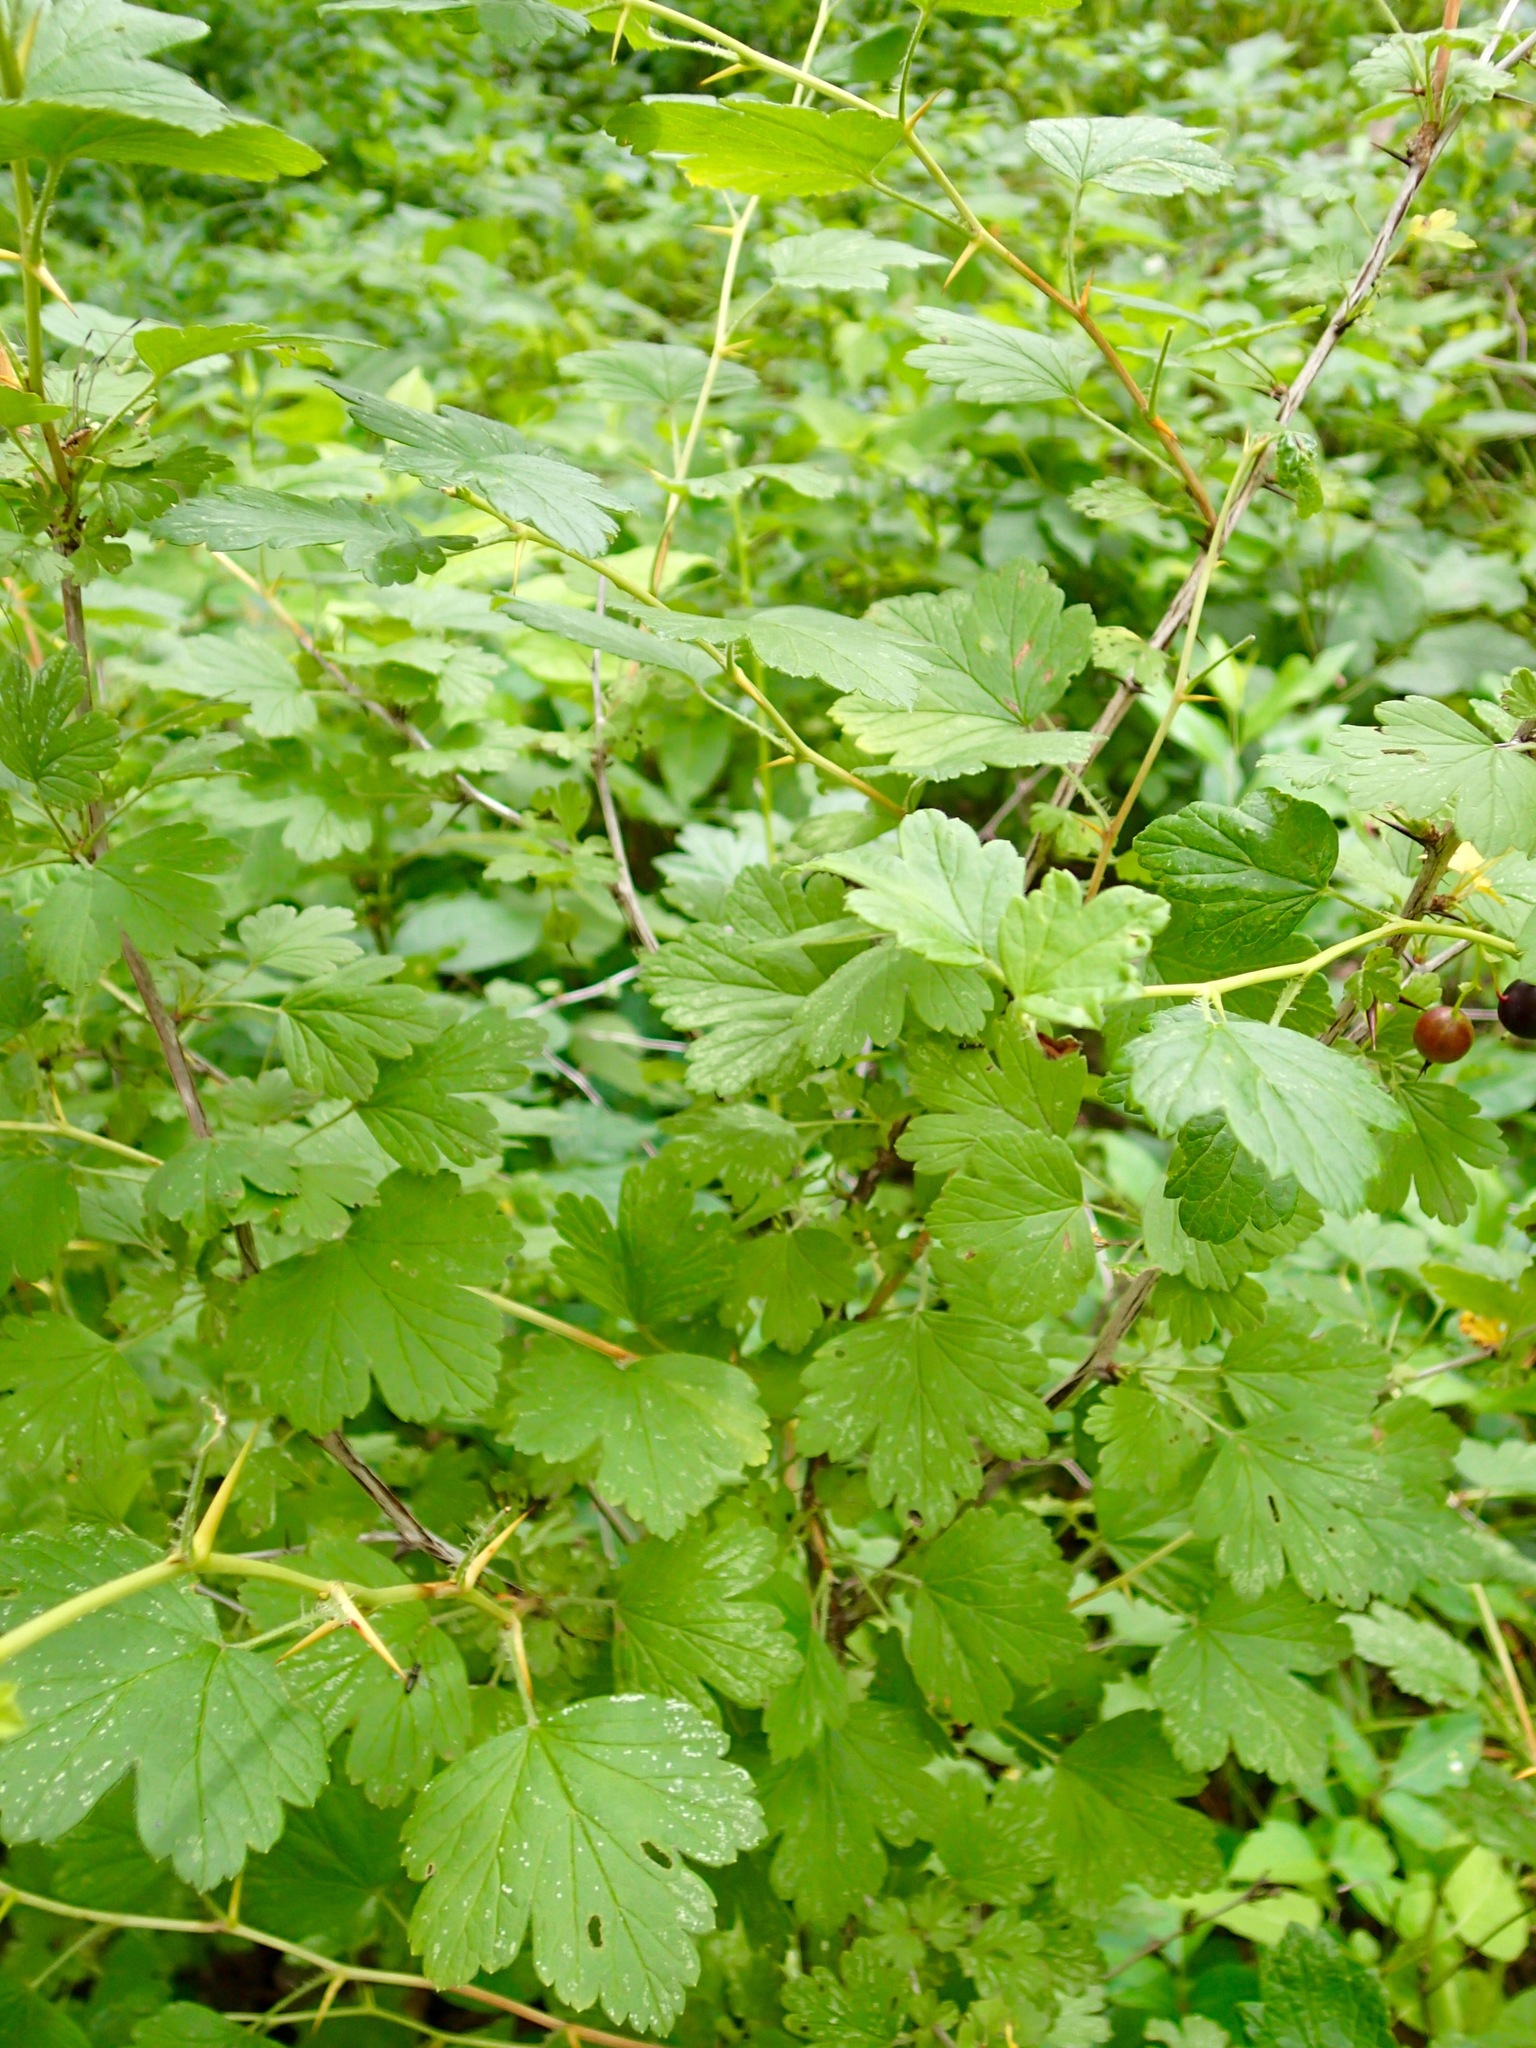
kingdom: Plantae
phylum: Tracheophyta
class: Magnoliopsida
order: Saxifragales
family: Grossulariaceae
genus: Ribes
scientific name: Ribes missouriense
